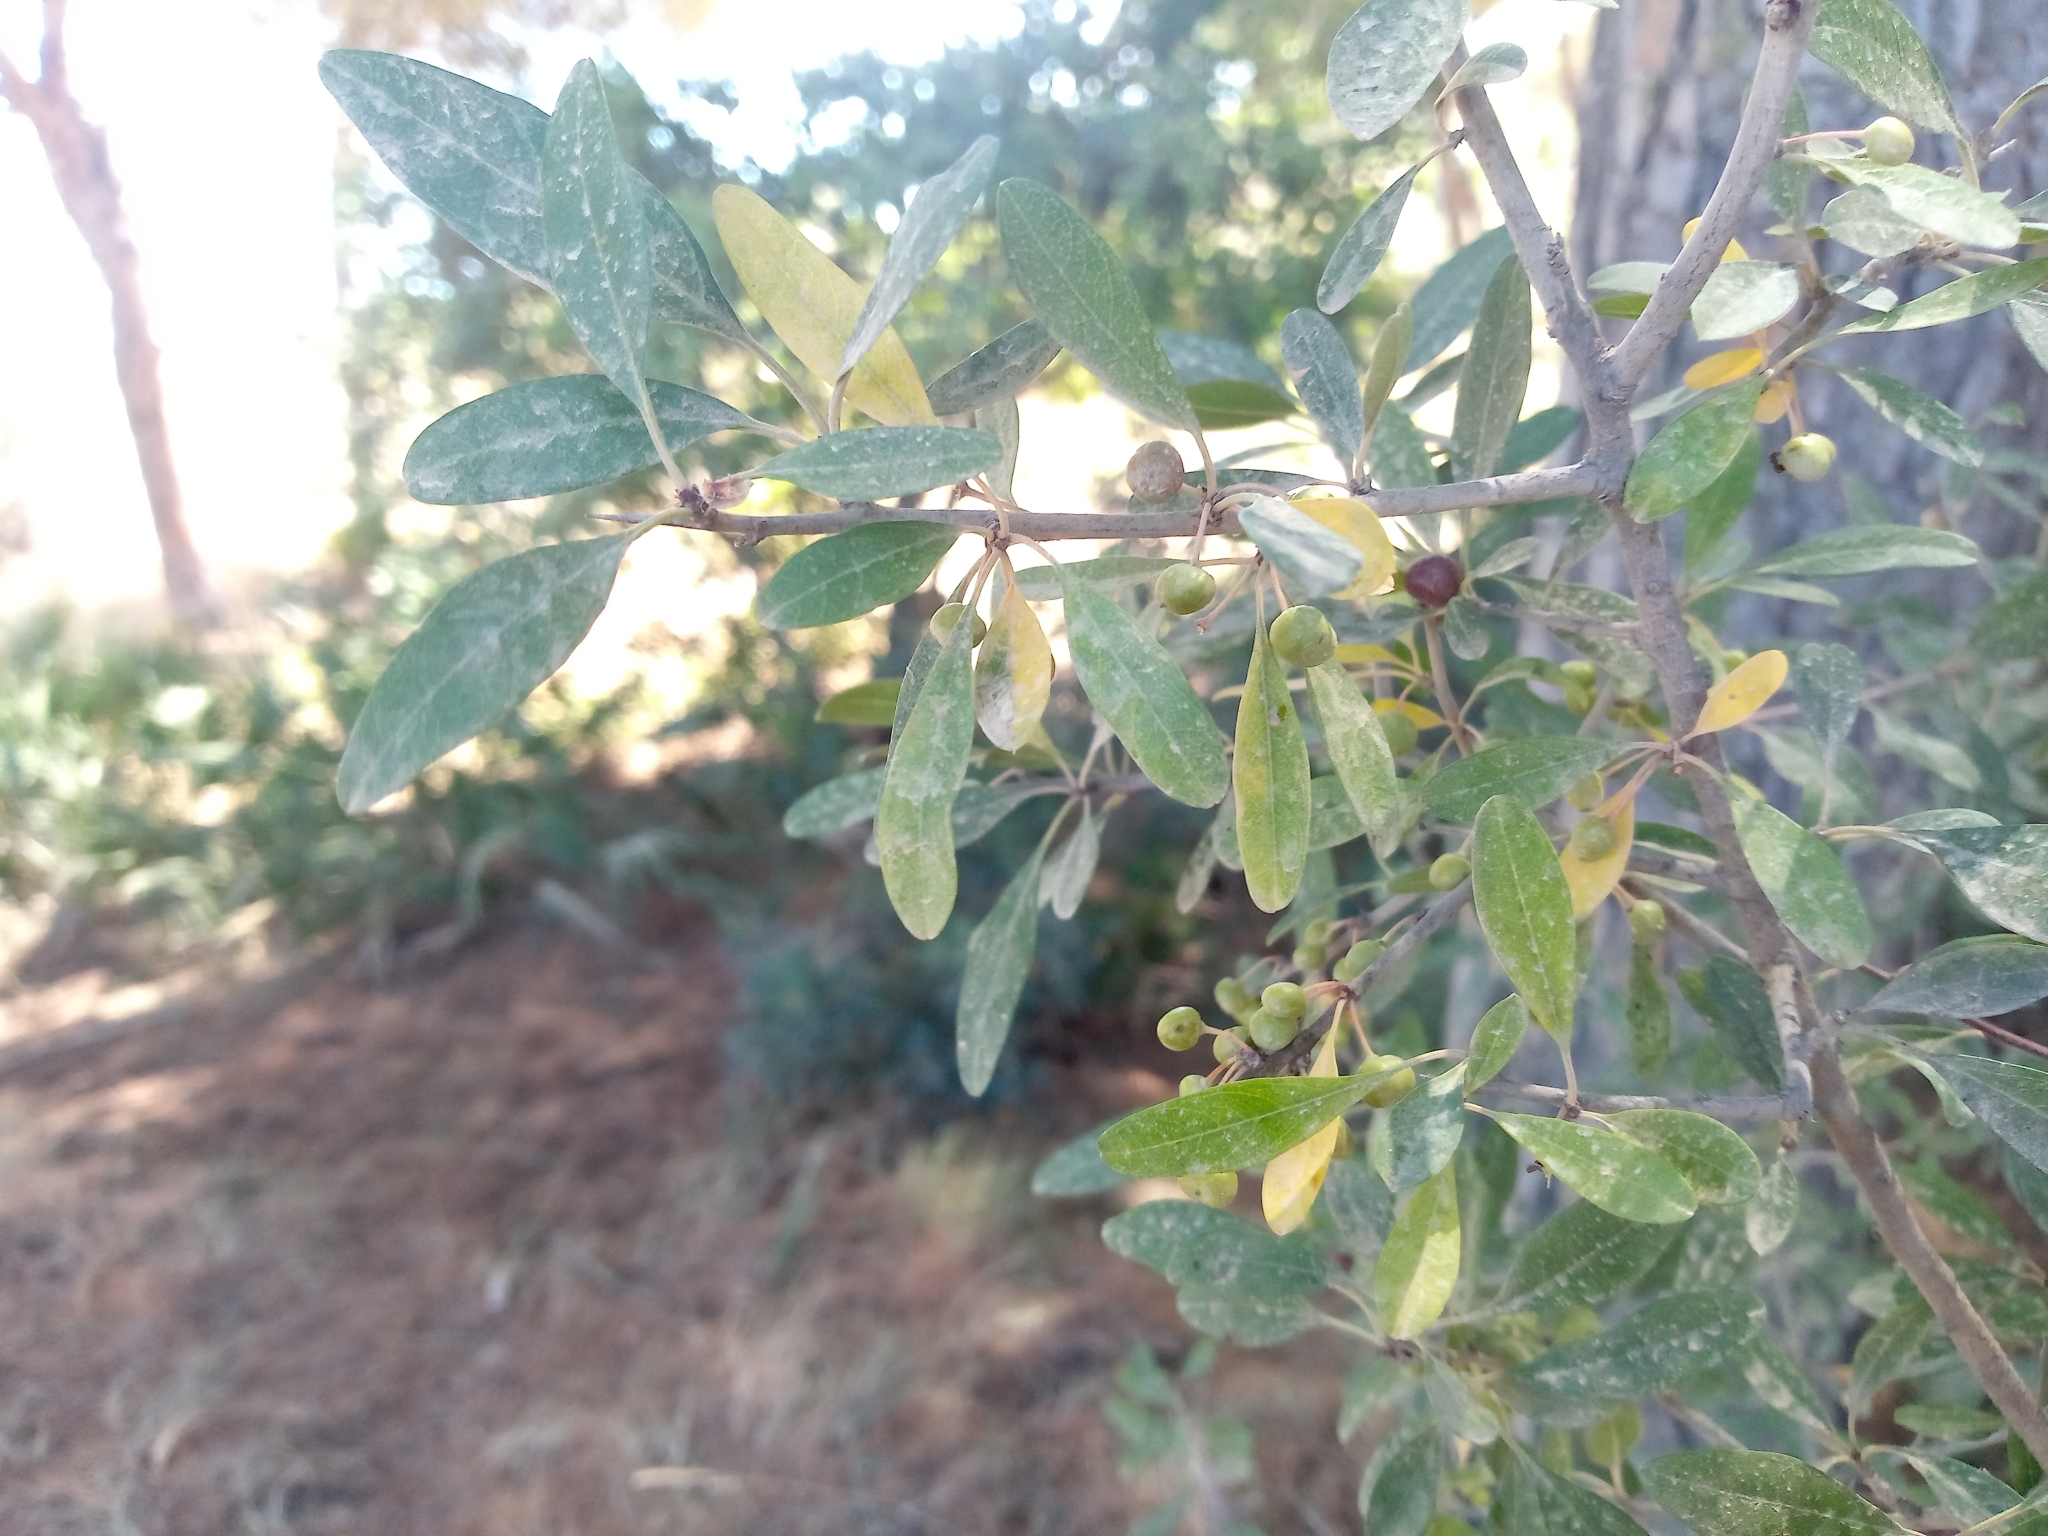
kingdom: Plantae
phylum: Tracheophyta
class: Magnoliopsida
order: Rosales
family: Rhamnaceae
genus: Rhamnus
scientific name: Rhamnus oleoides
